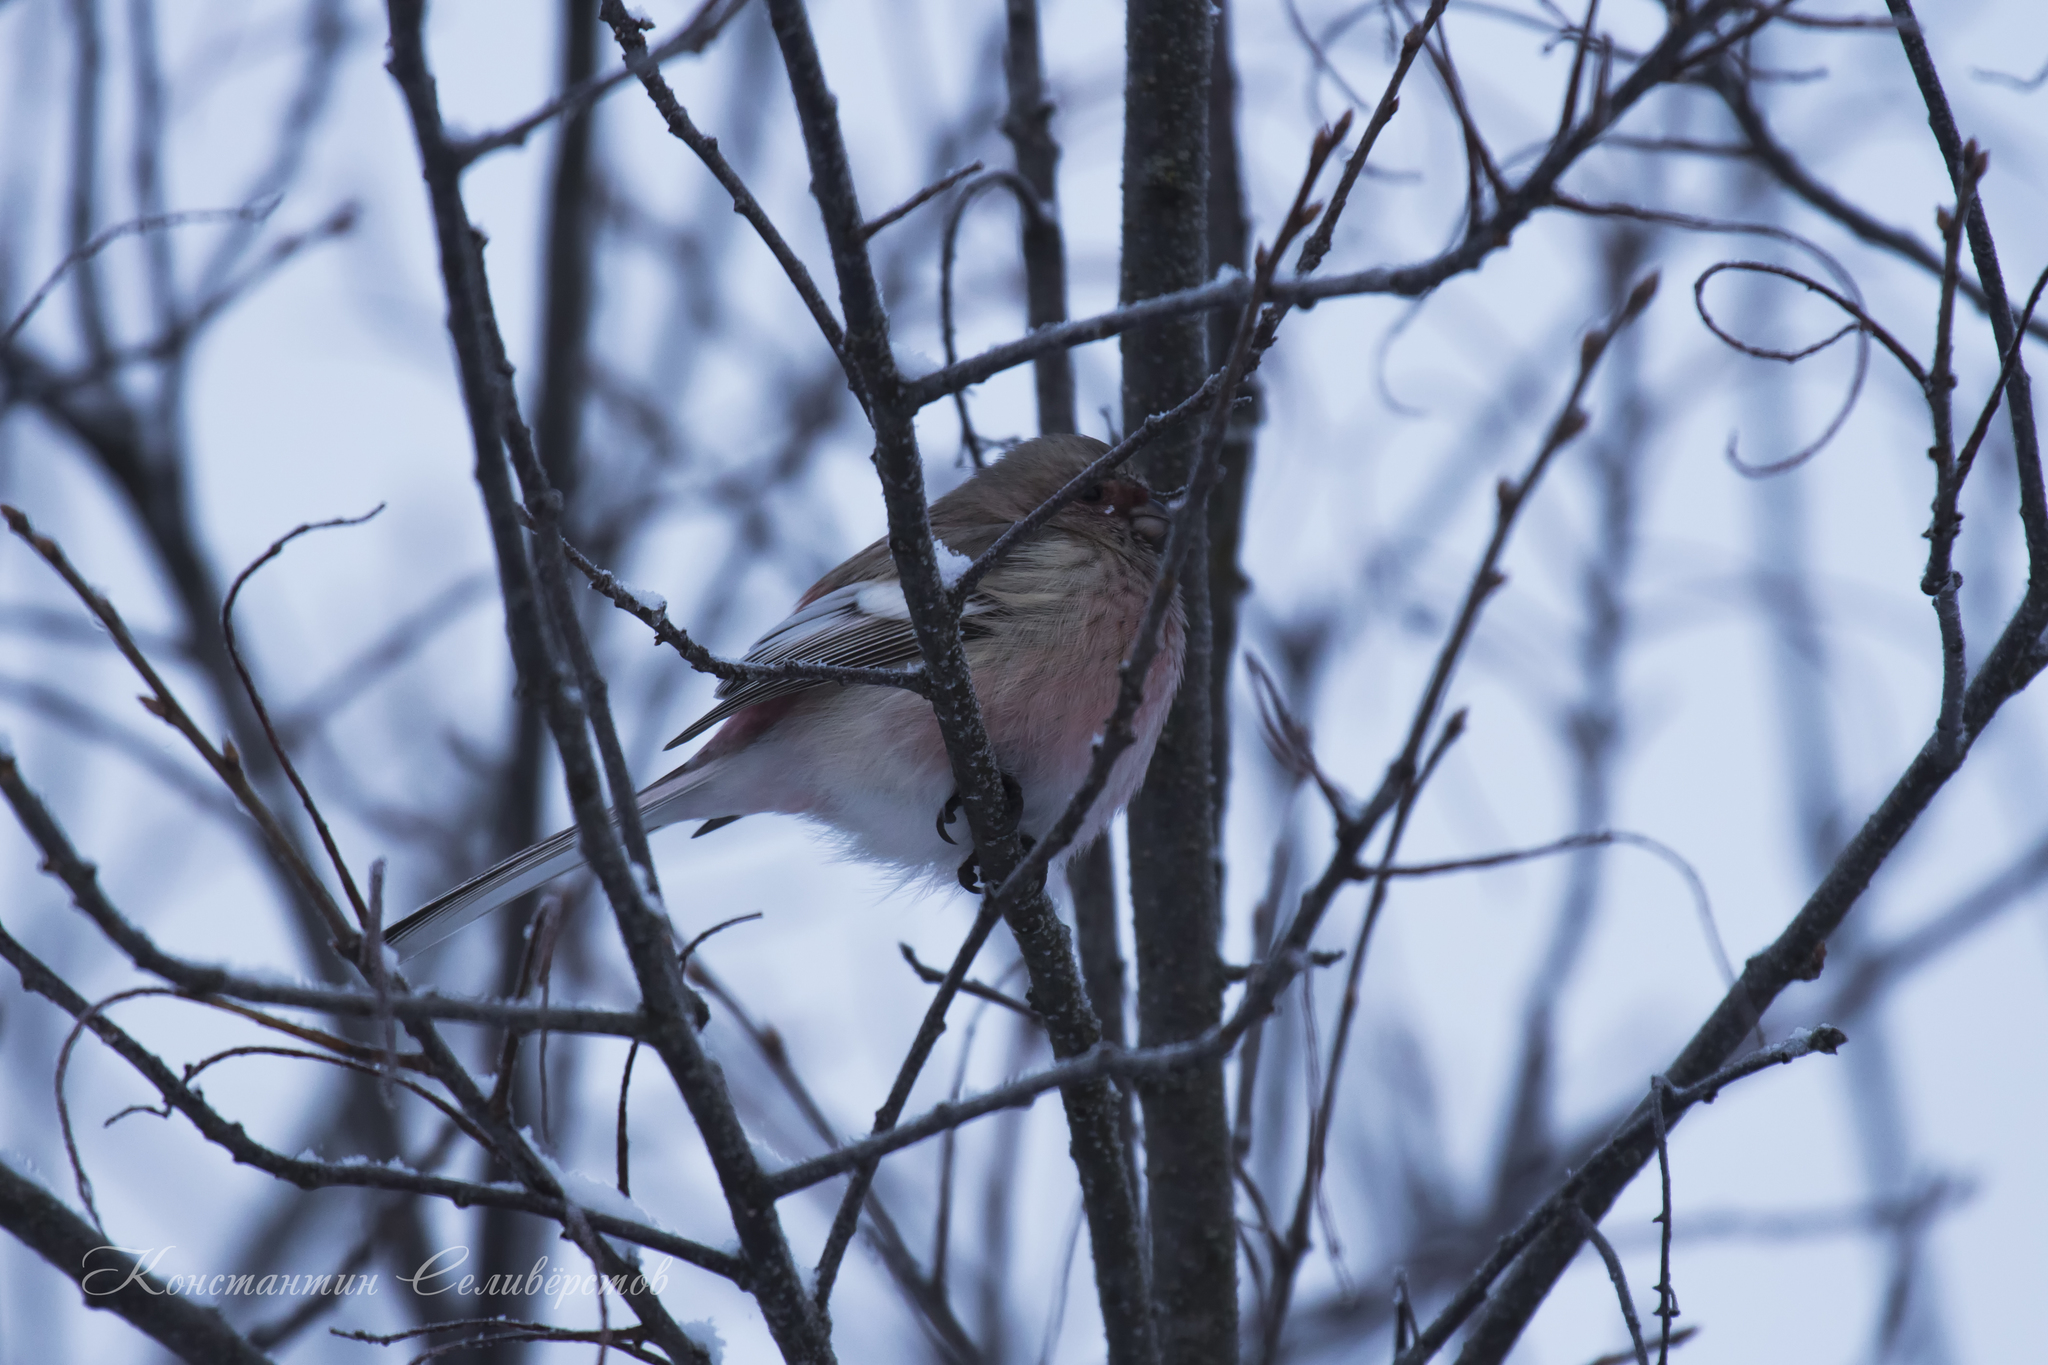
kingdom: Animalia
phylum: Chordata
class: Aves
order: Passeriformes
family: Fringillidae
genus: Carpodacus
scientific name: Carpodacus sibiricus
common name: Long-tailed rosefinch
